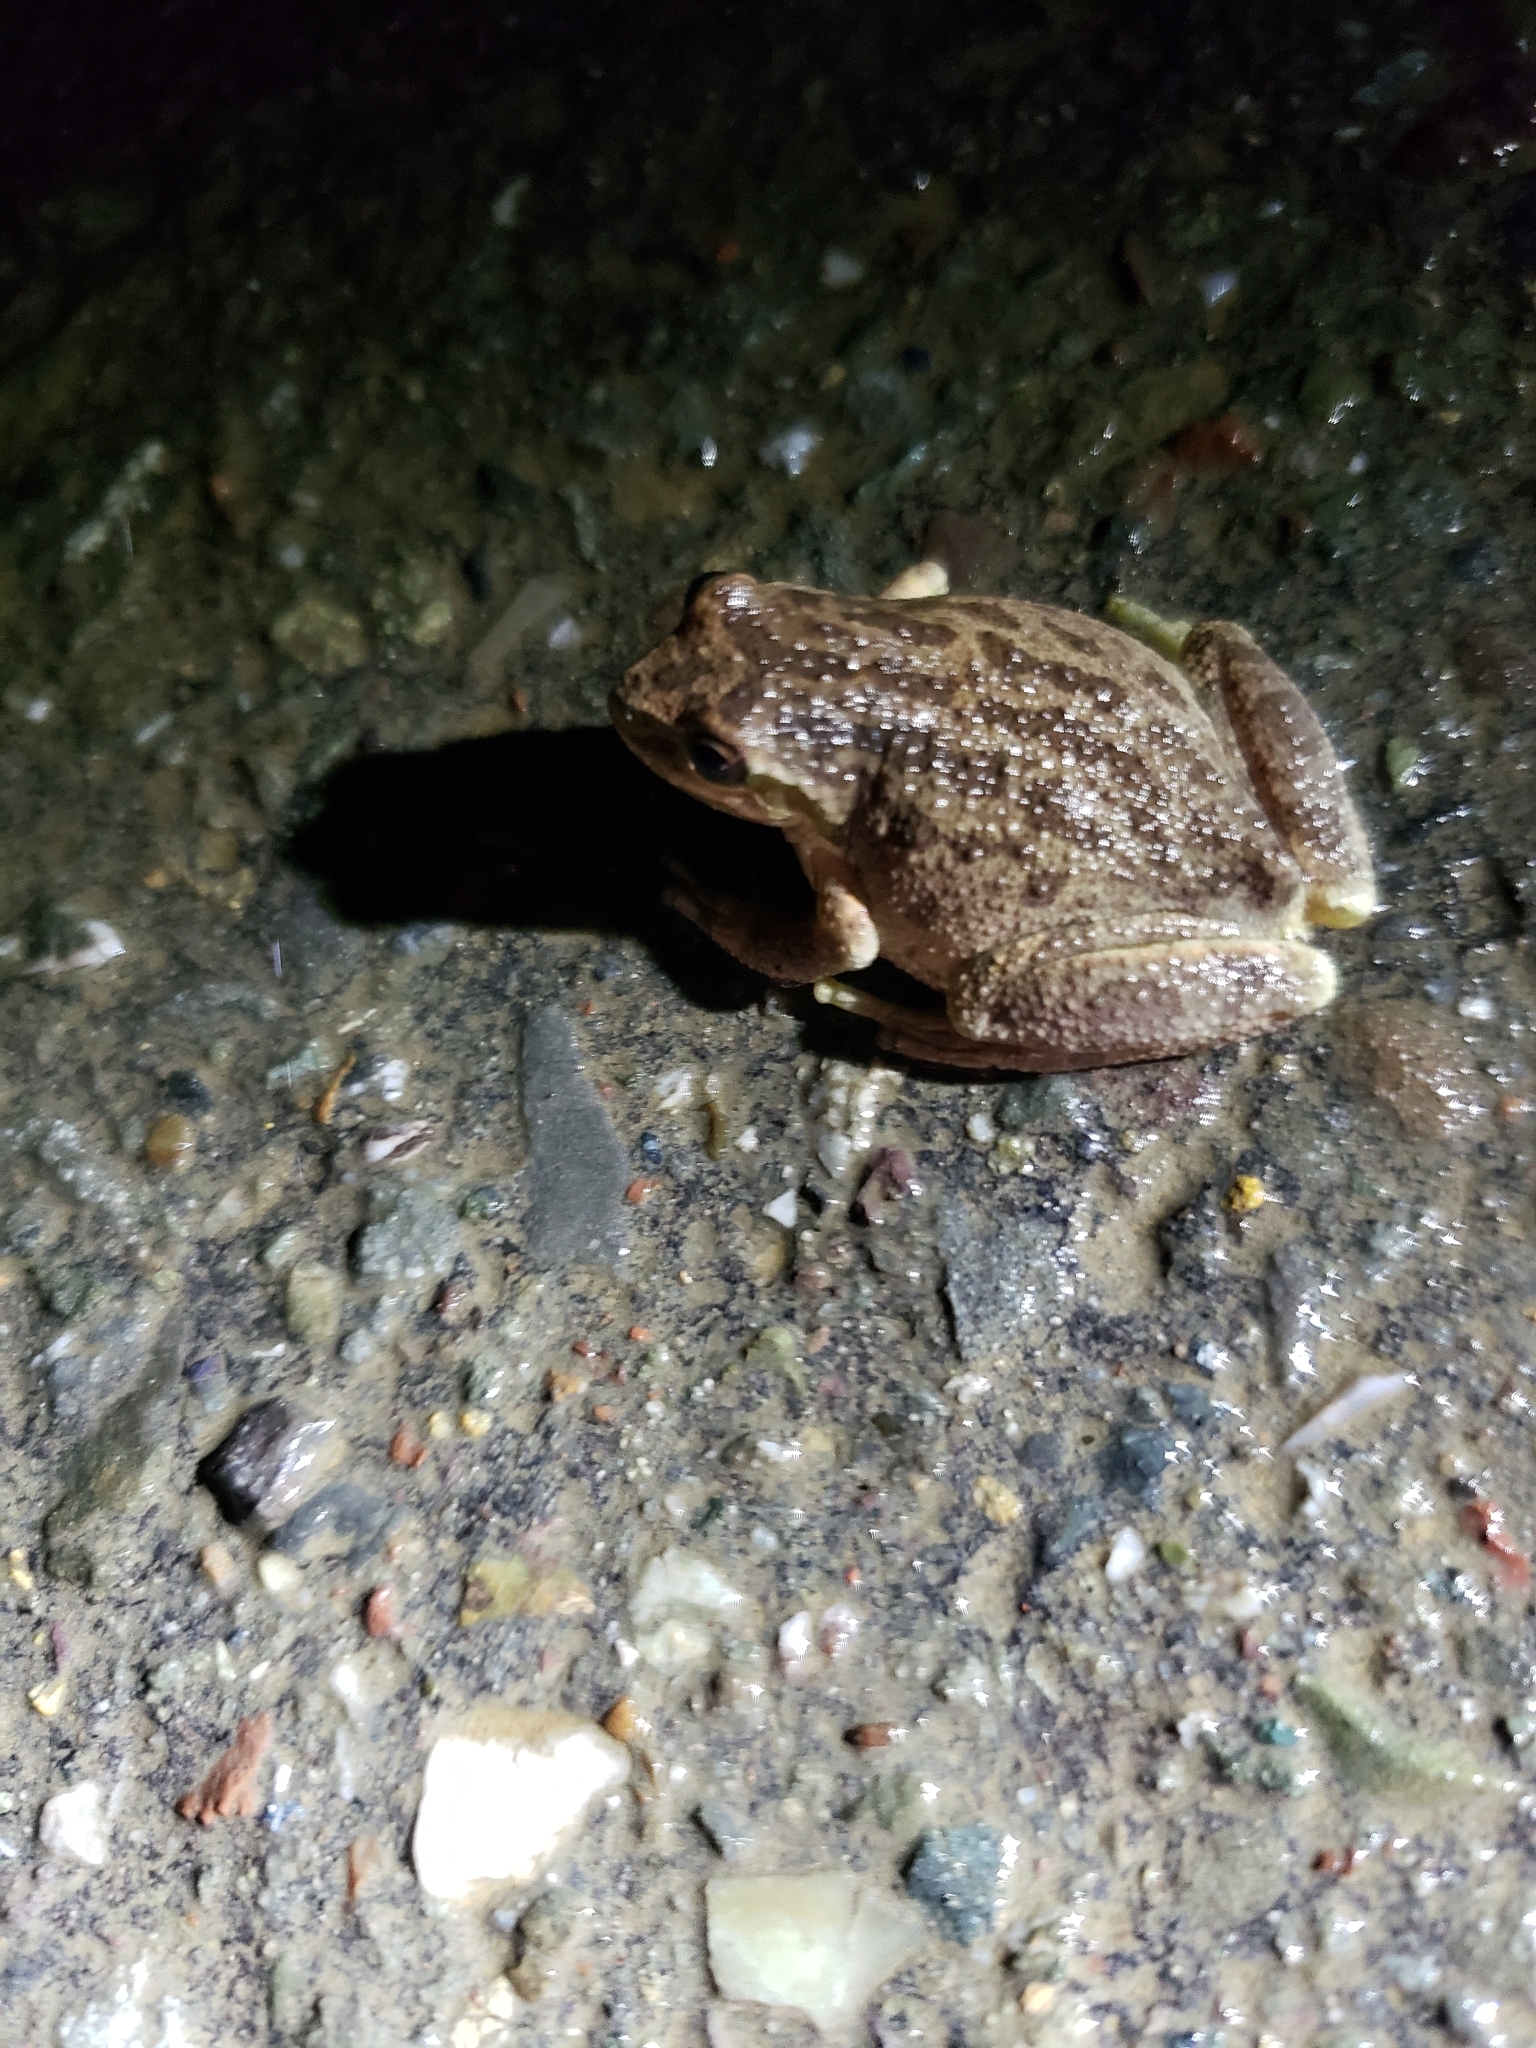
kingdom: Animalia
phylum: Chordata
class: Amphibia
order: Anura
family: Hylidae
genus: Pseudacris
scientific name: Pseudacris regilla
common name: Pacific chorus frog
